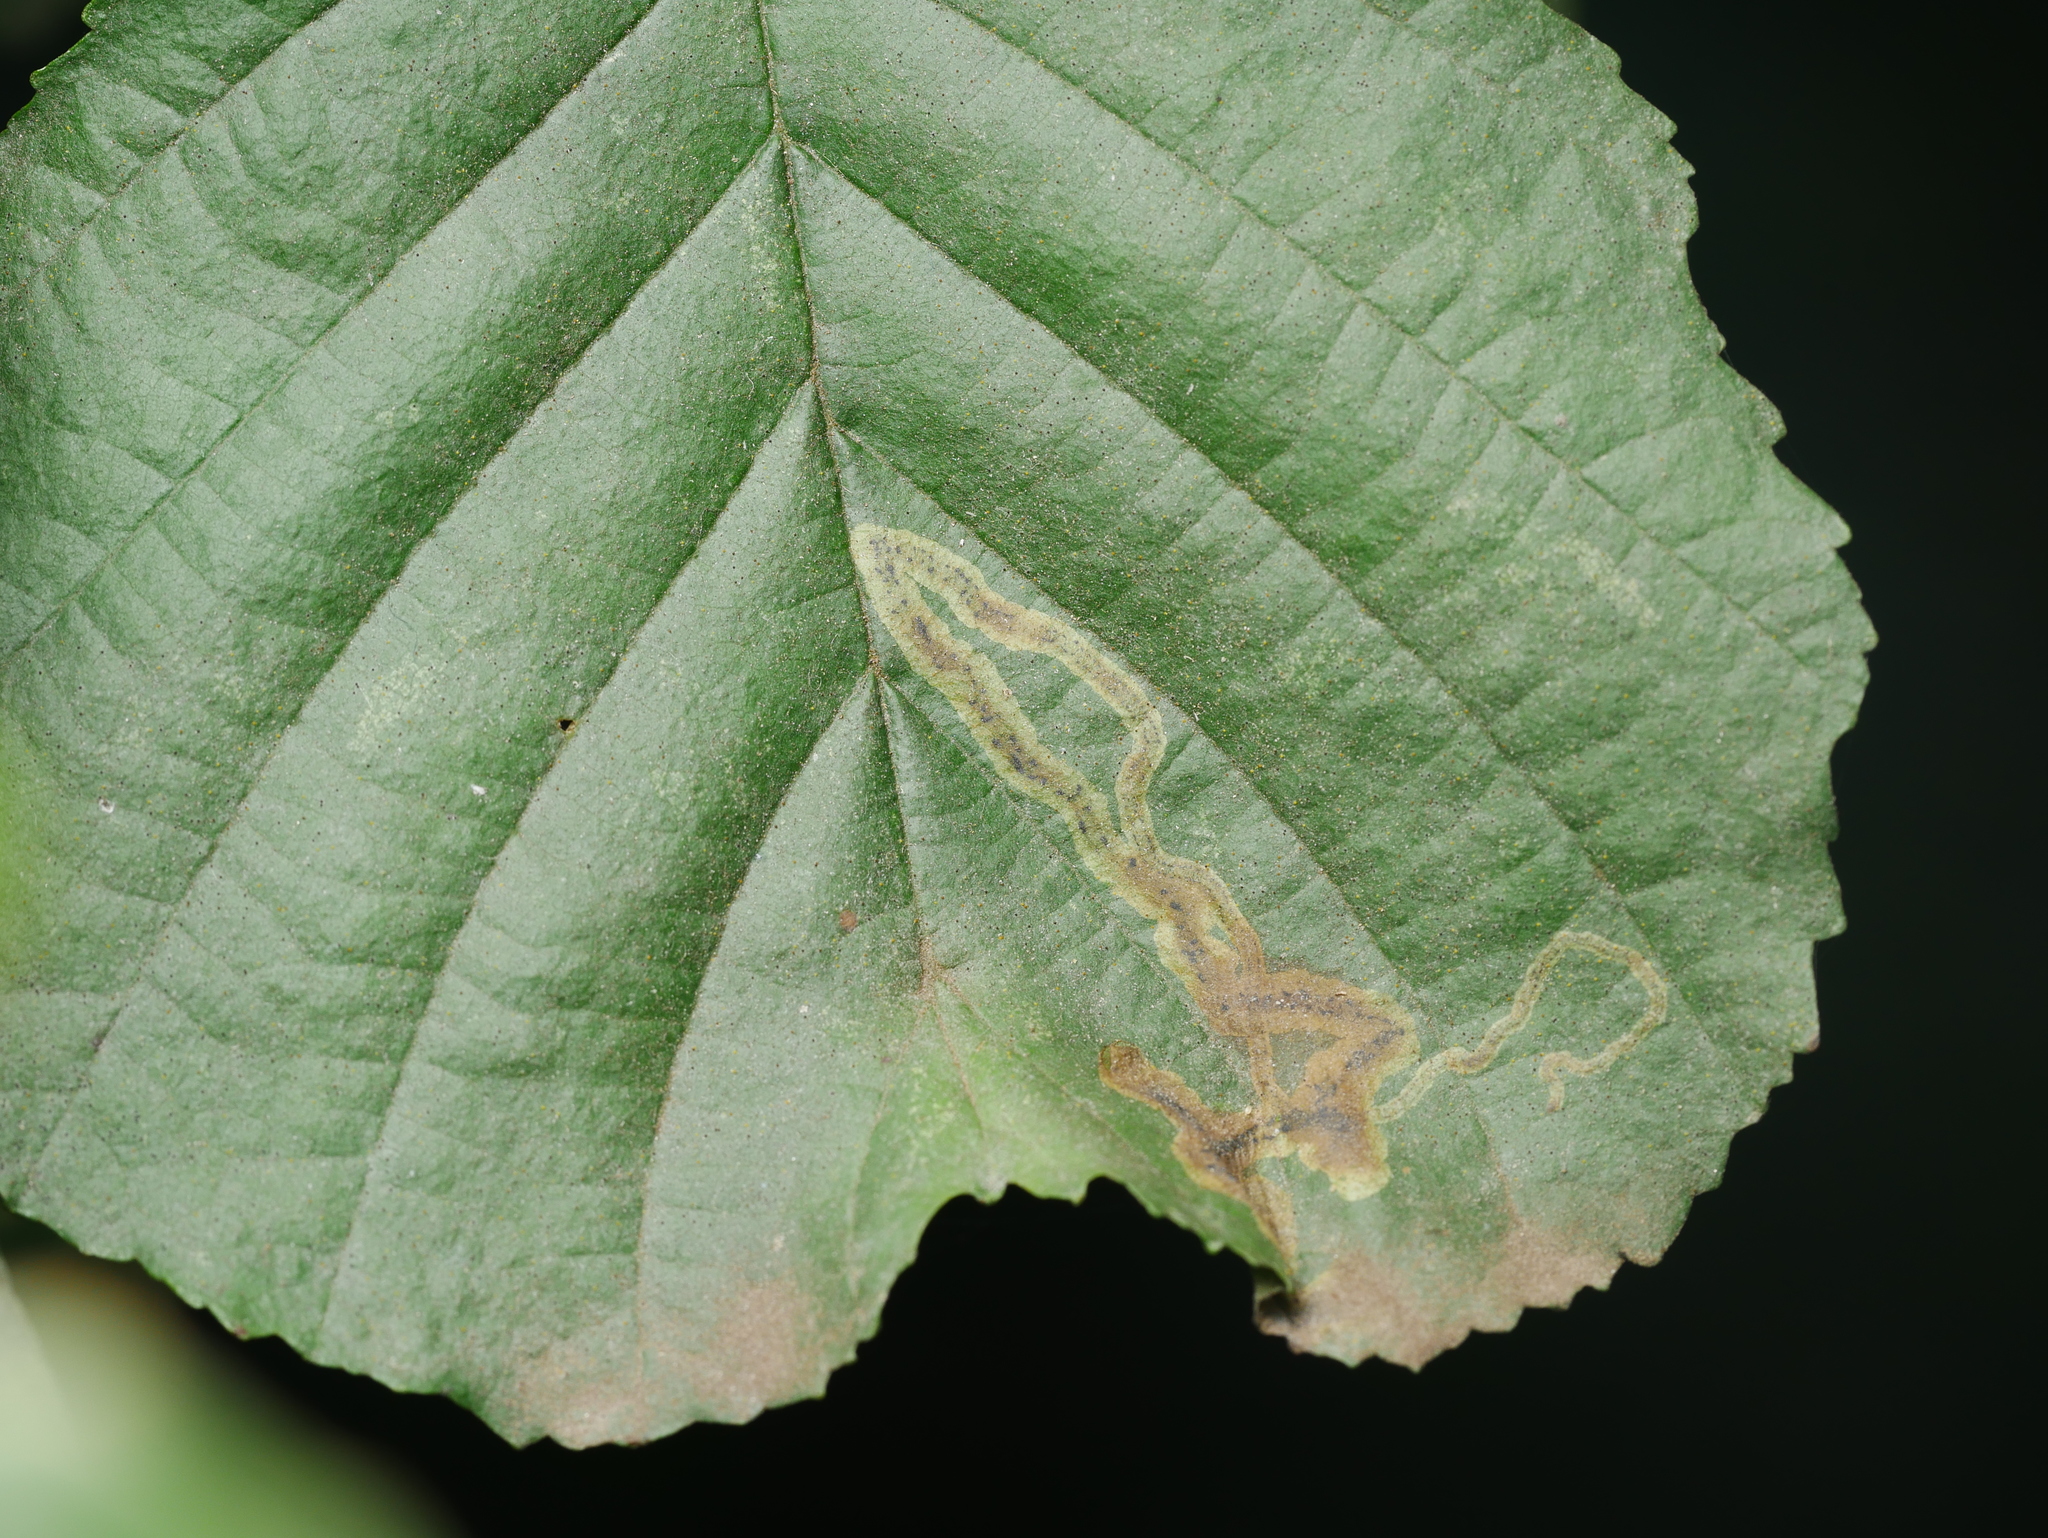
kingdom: Animalia
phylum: Arthropoda
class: Insecta
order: Diptera
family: Agromyzidae
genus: Agromyza
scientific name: Agromyza alnivora
